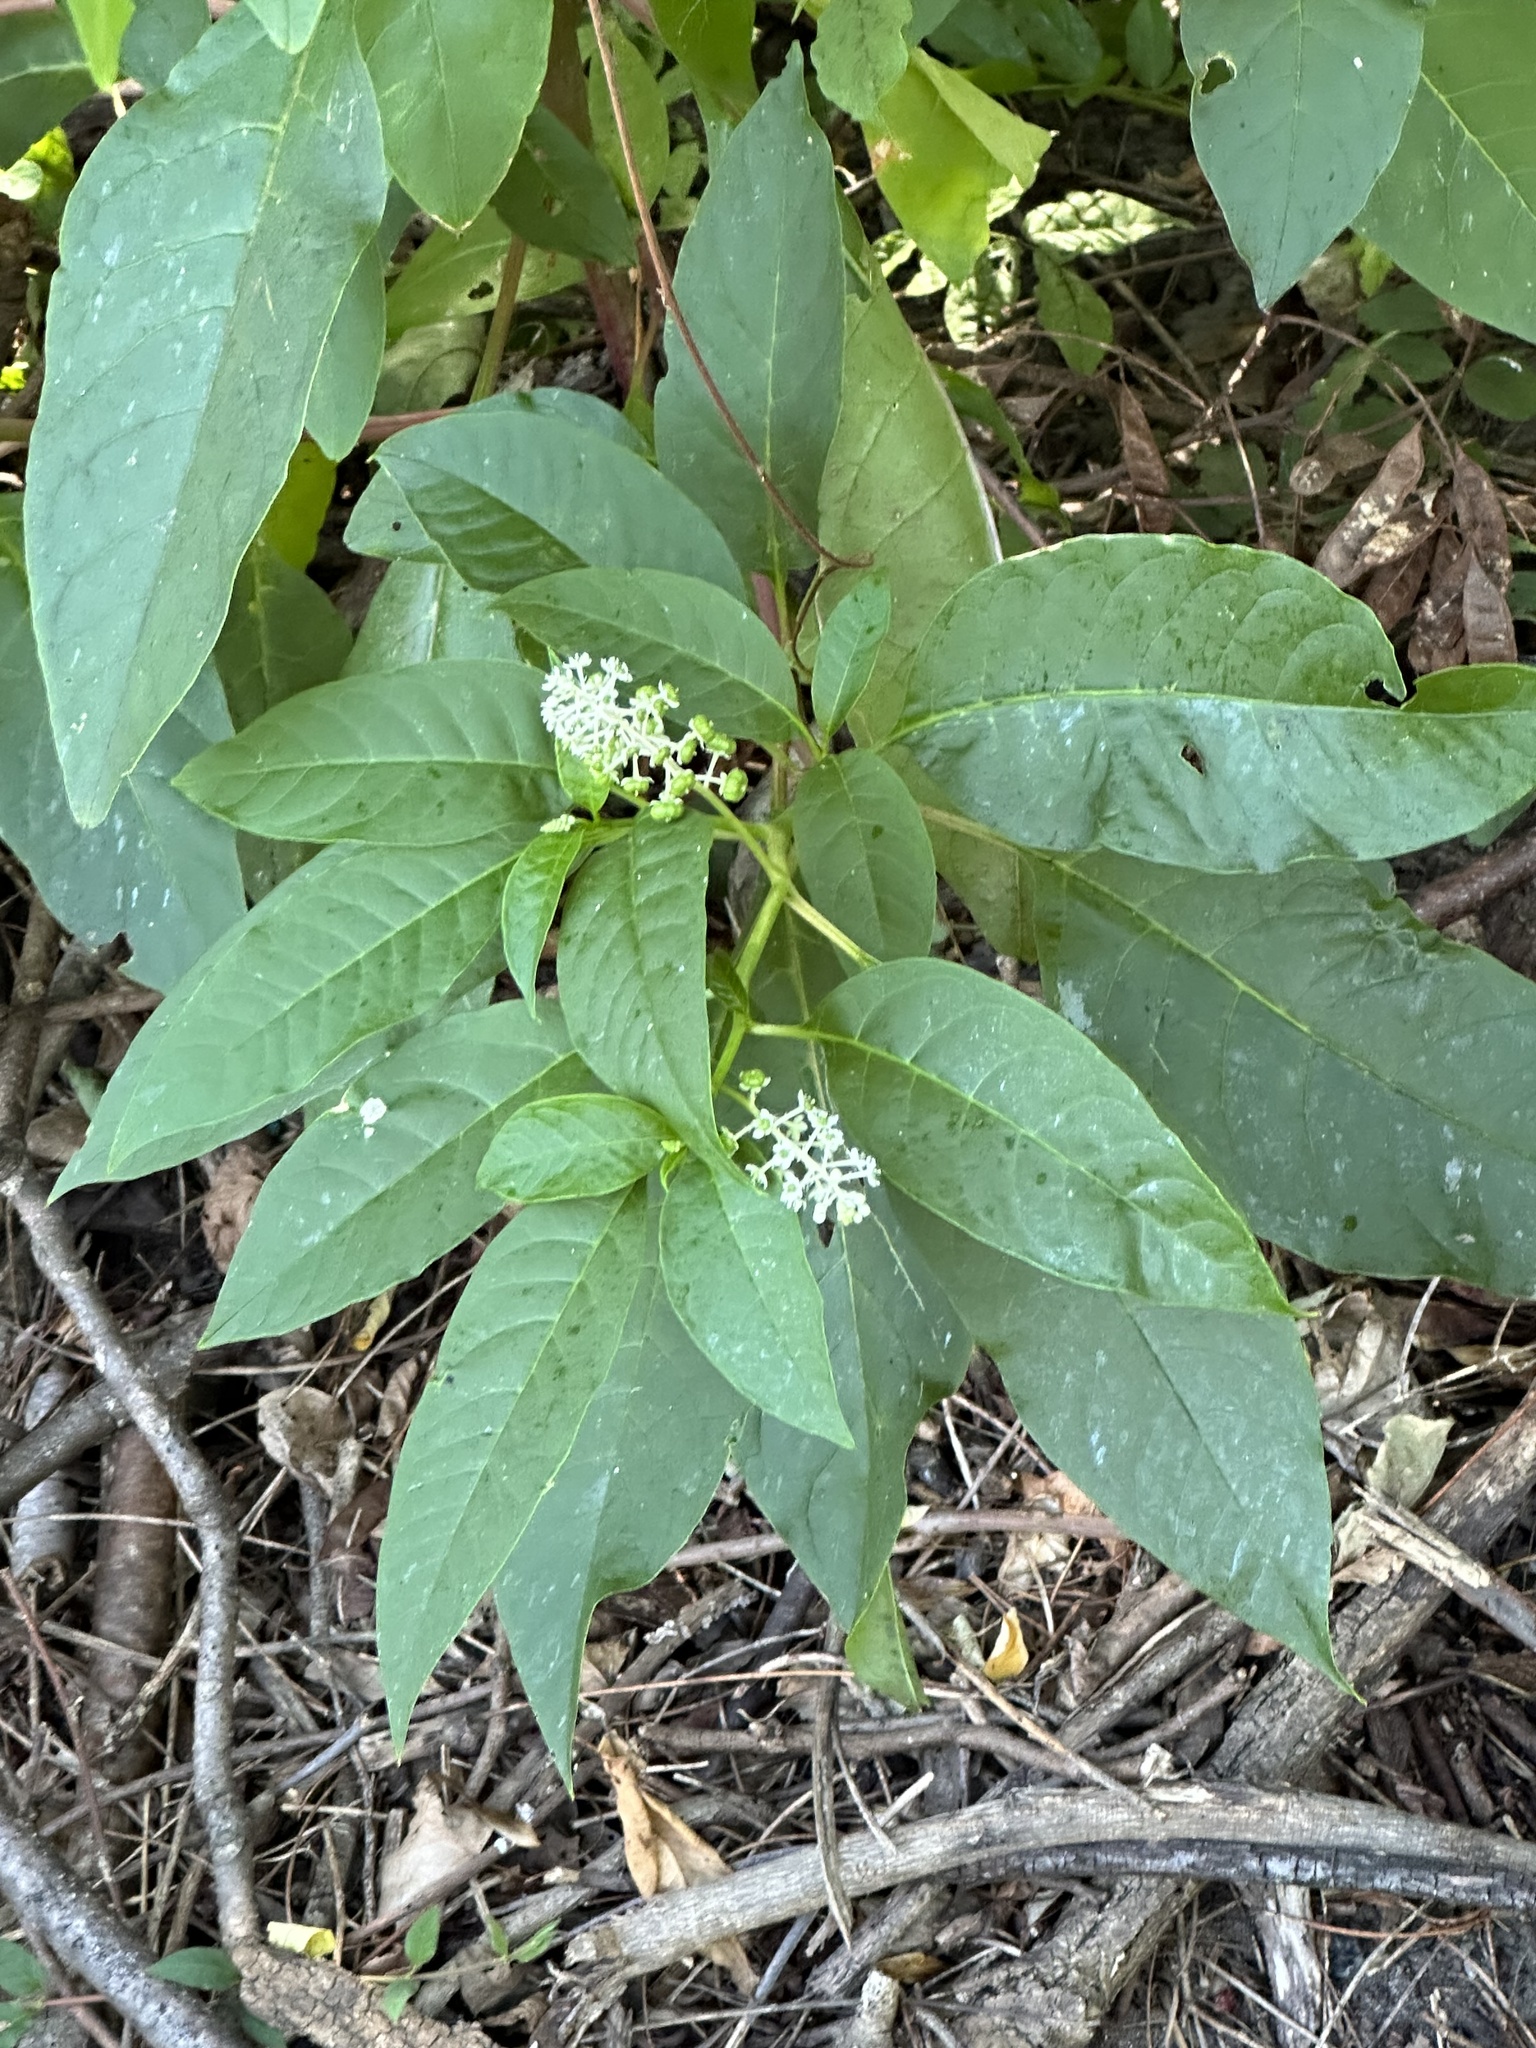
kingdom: Plantae
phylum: Tracheophyta
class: Magnoliopsida
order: Caryophyllales
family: Phytolaccaceae
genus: Phytolacca
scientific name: Phytolacca americana
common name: American pokeweed
